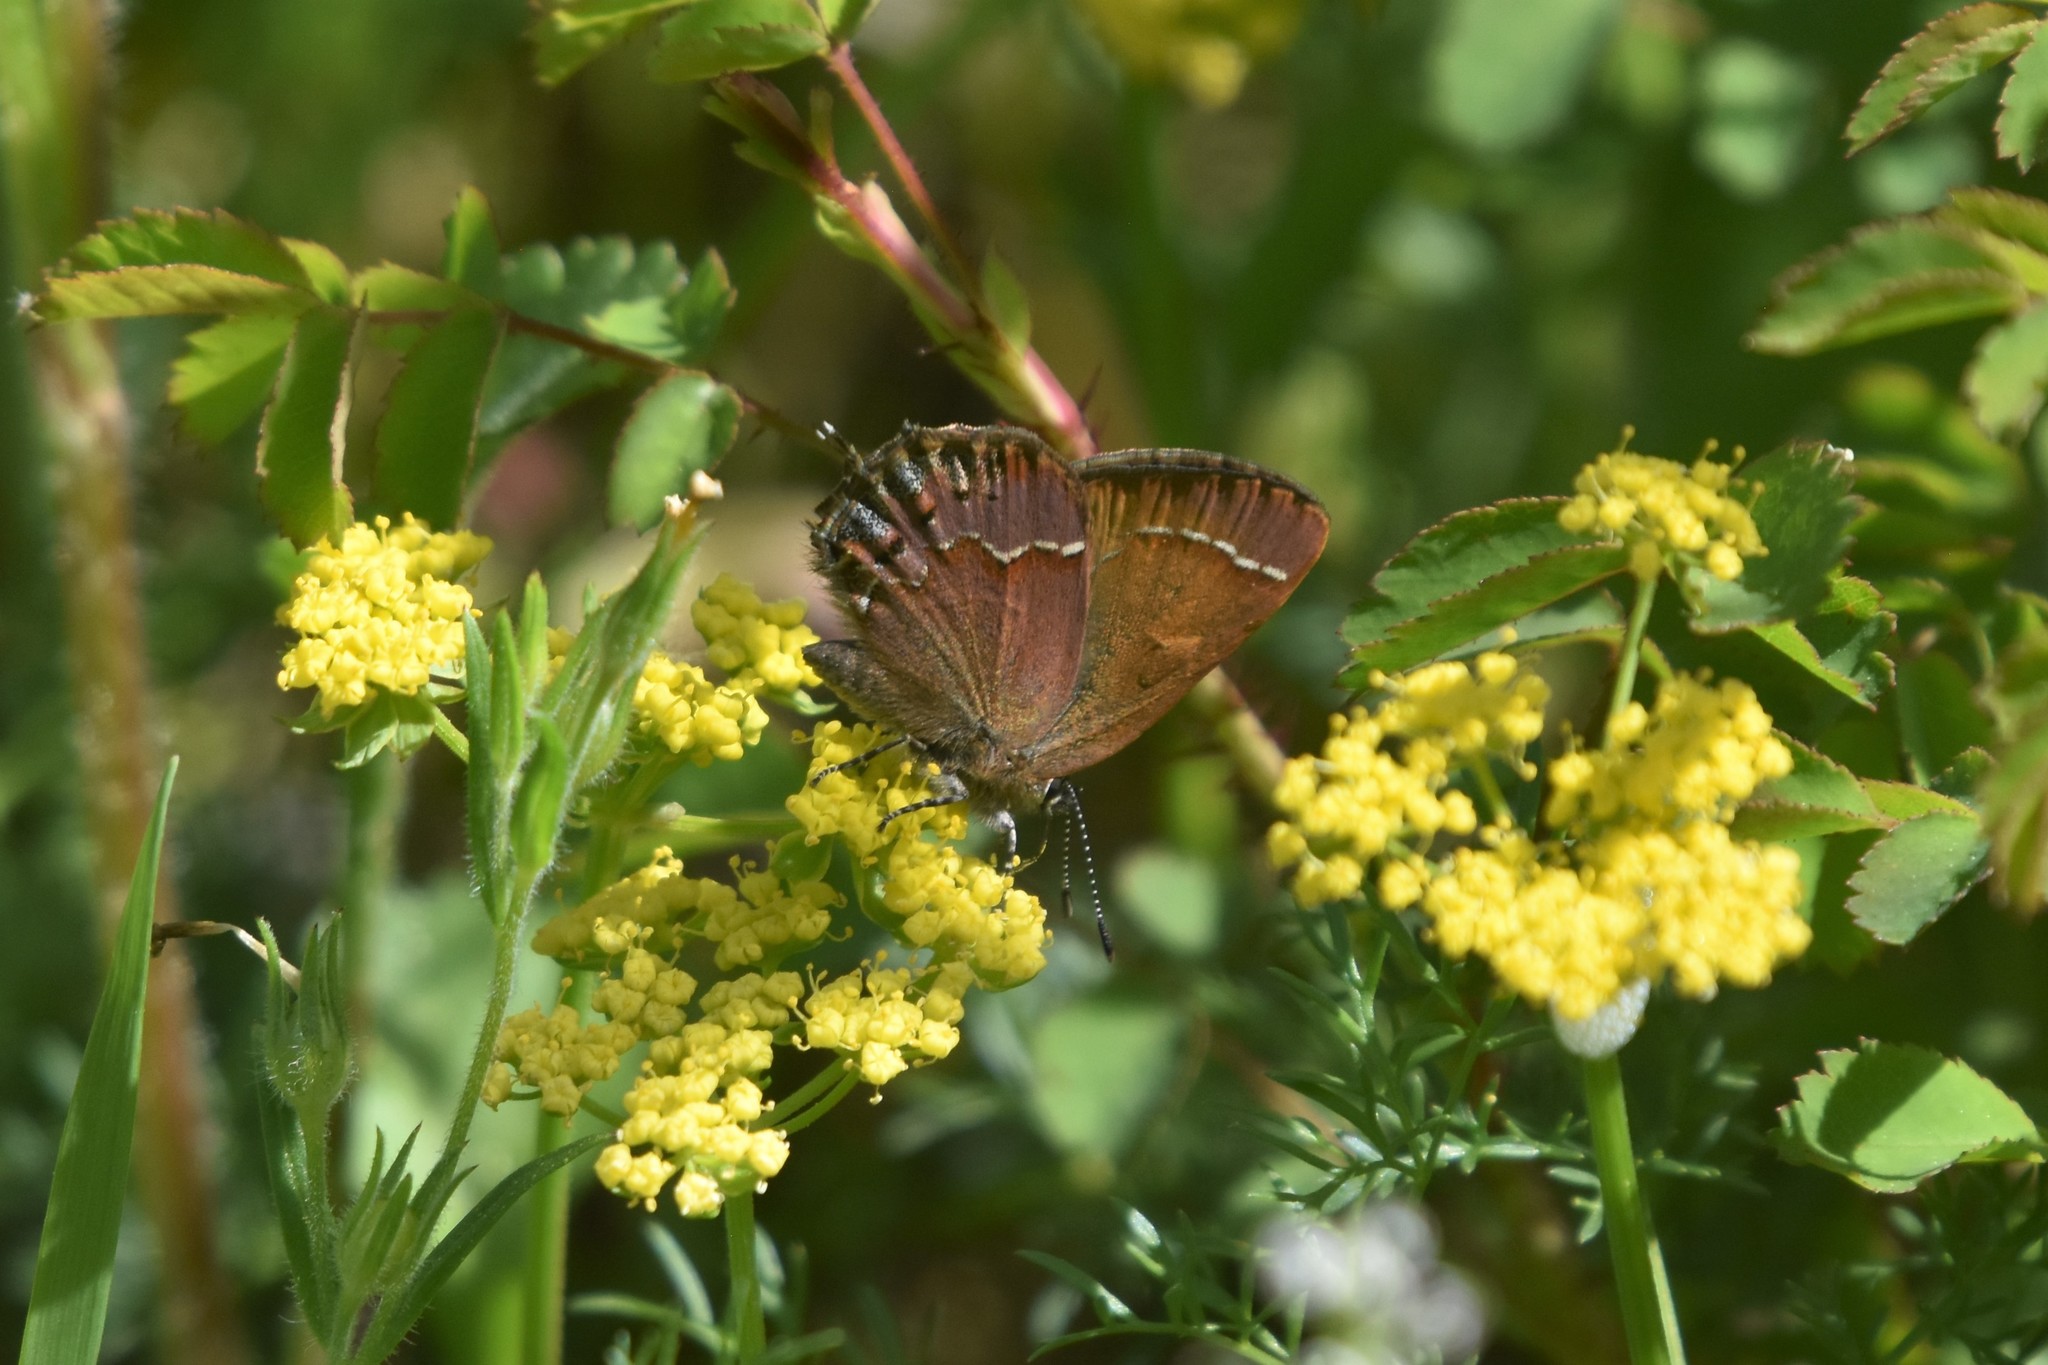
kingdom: Animalia
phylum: Arthropoda
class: Insecta
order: Lepidoptera
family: Lycaenidae
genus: Mitoura
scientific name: Mitoura gryneus
